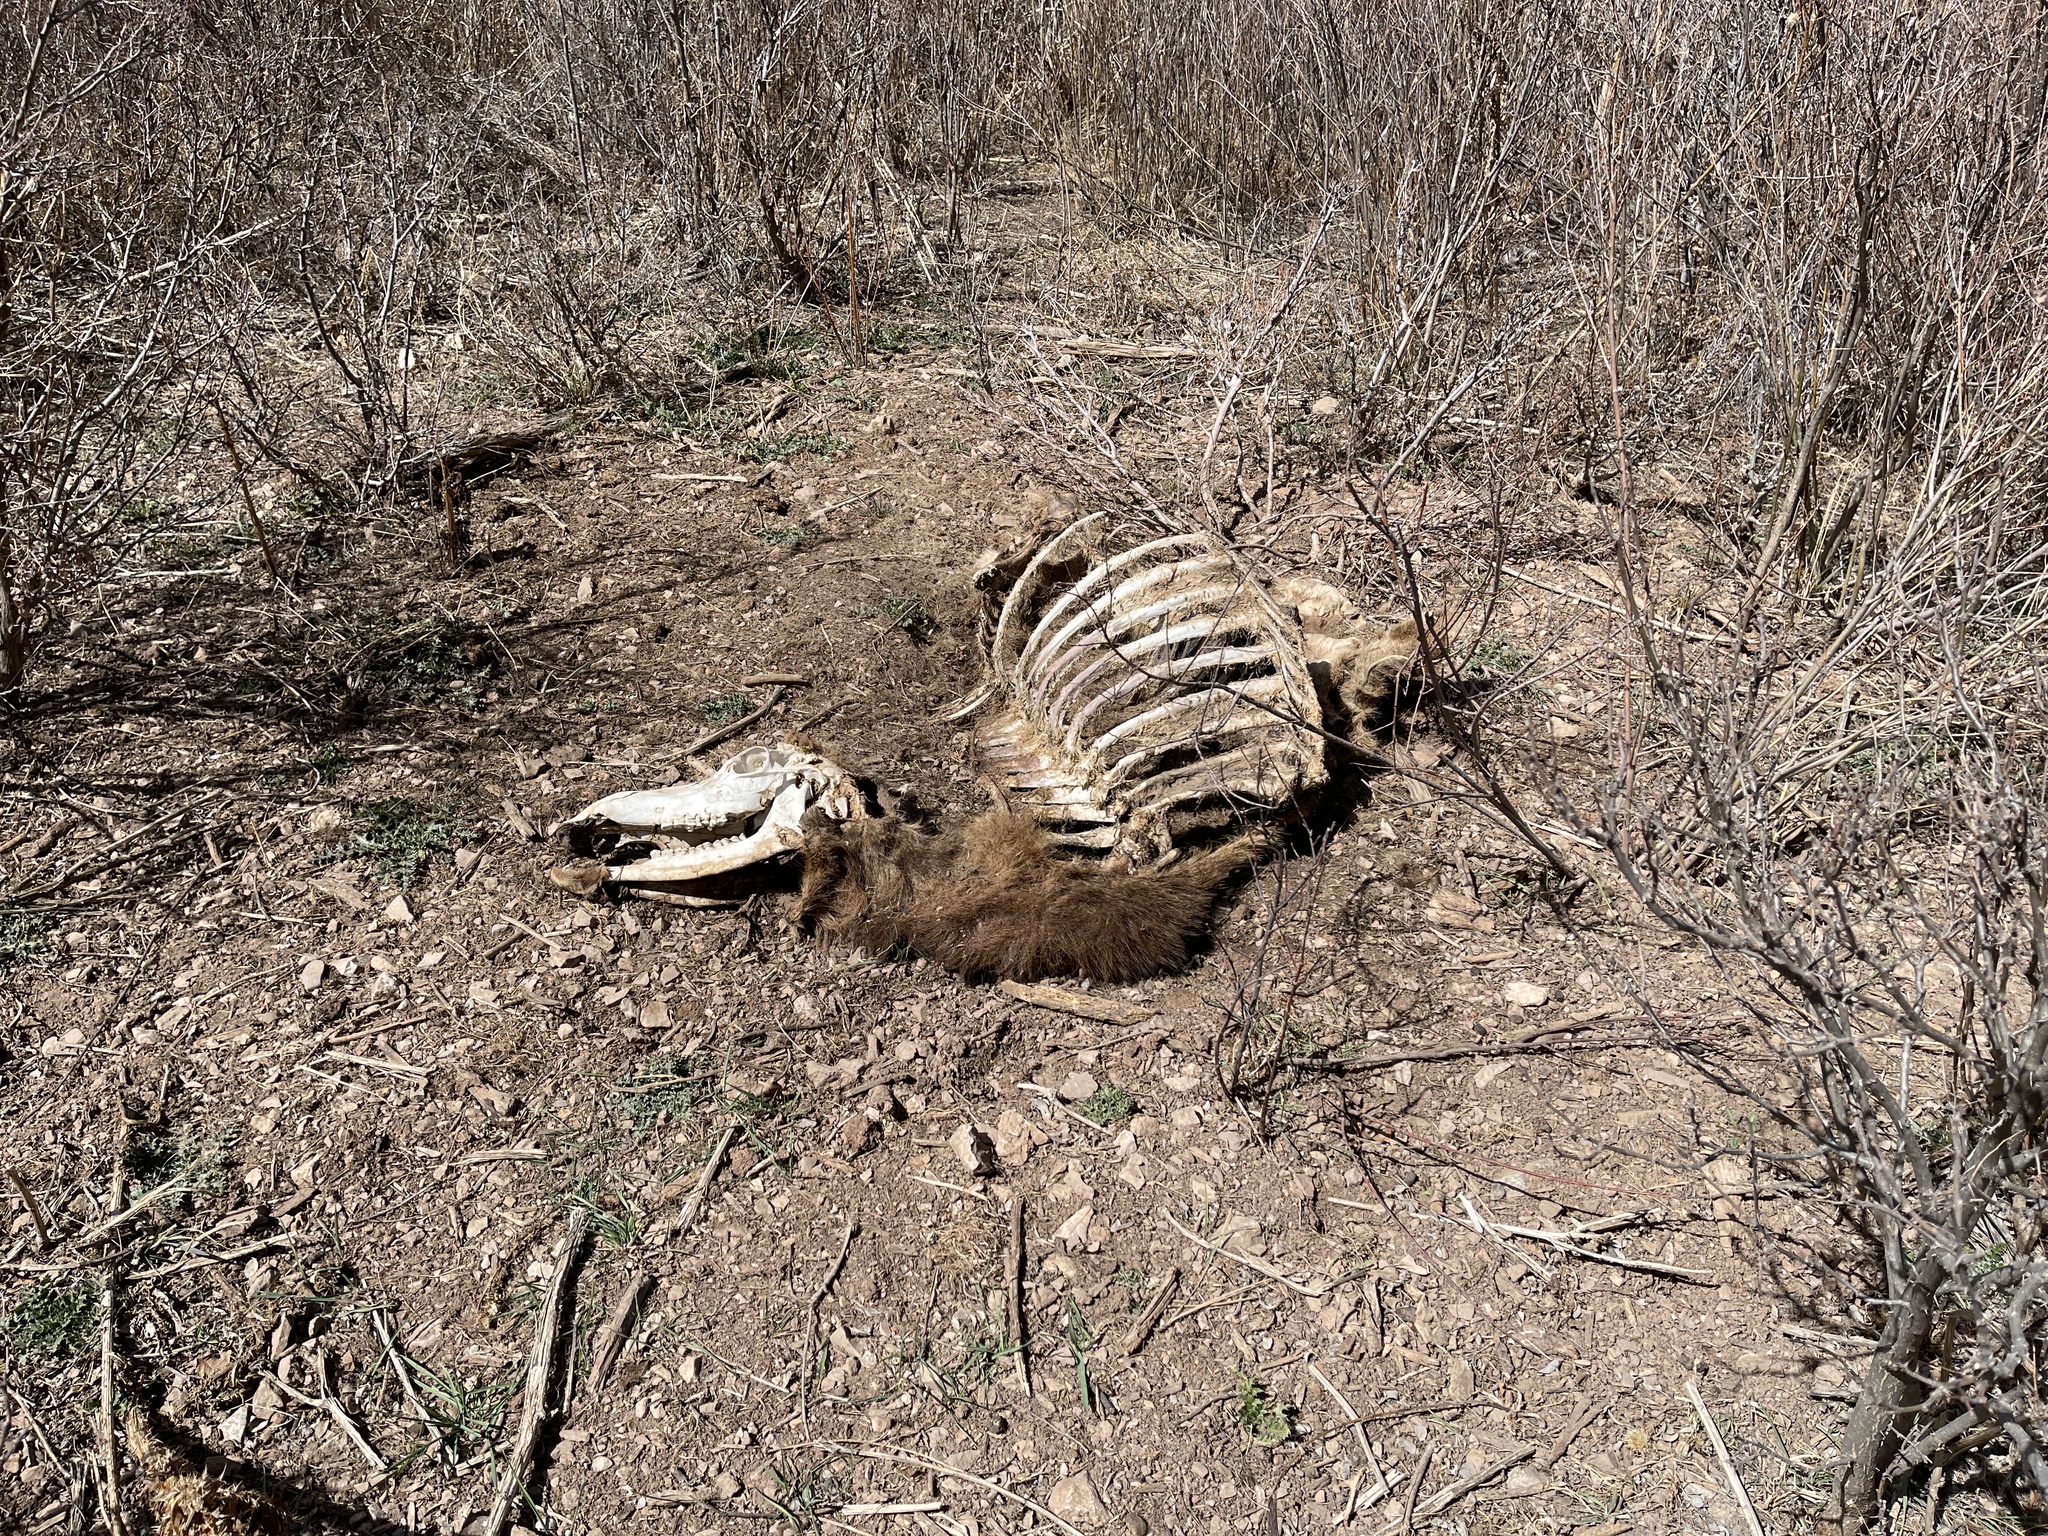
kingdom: Animalia
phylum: Chordata
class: Mammalia
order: Artiodactyla
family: Cervidae
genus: Cervus
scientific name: Cervus elaphus
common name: Red deer
